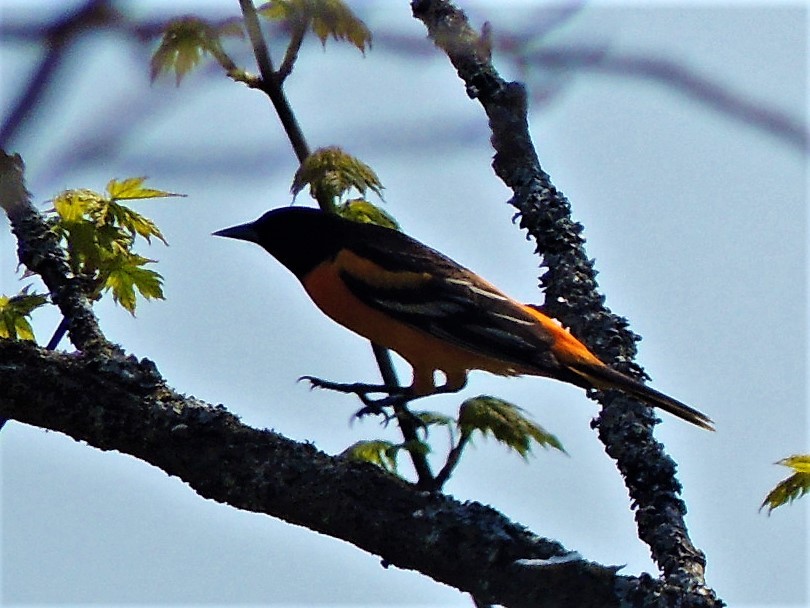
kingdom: Animalia
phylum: Chordata
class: Aves
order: Passeriformes
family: Icteridae
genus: Icterus
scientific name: Icterus galbula
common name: Baltimore oriole
